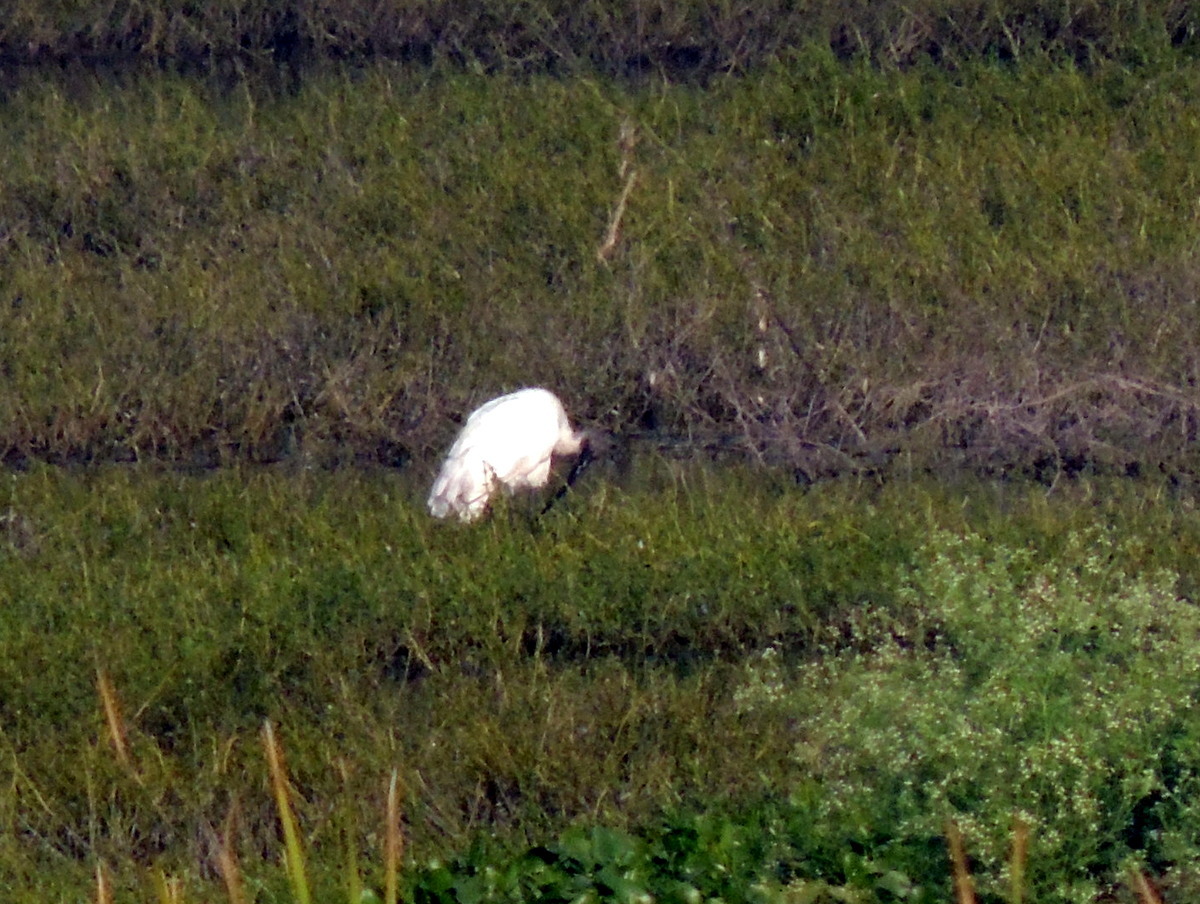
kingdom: Animalia
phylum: Chordata
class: Aves
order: Pelecaniformes
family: Threskiornithidae
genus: Threskiornis
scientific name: Threskiornis melanocephalus
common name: Black-headed ibis
